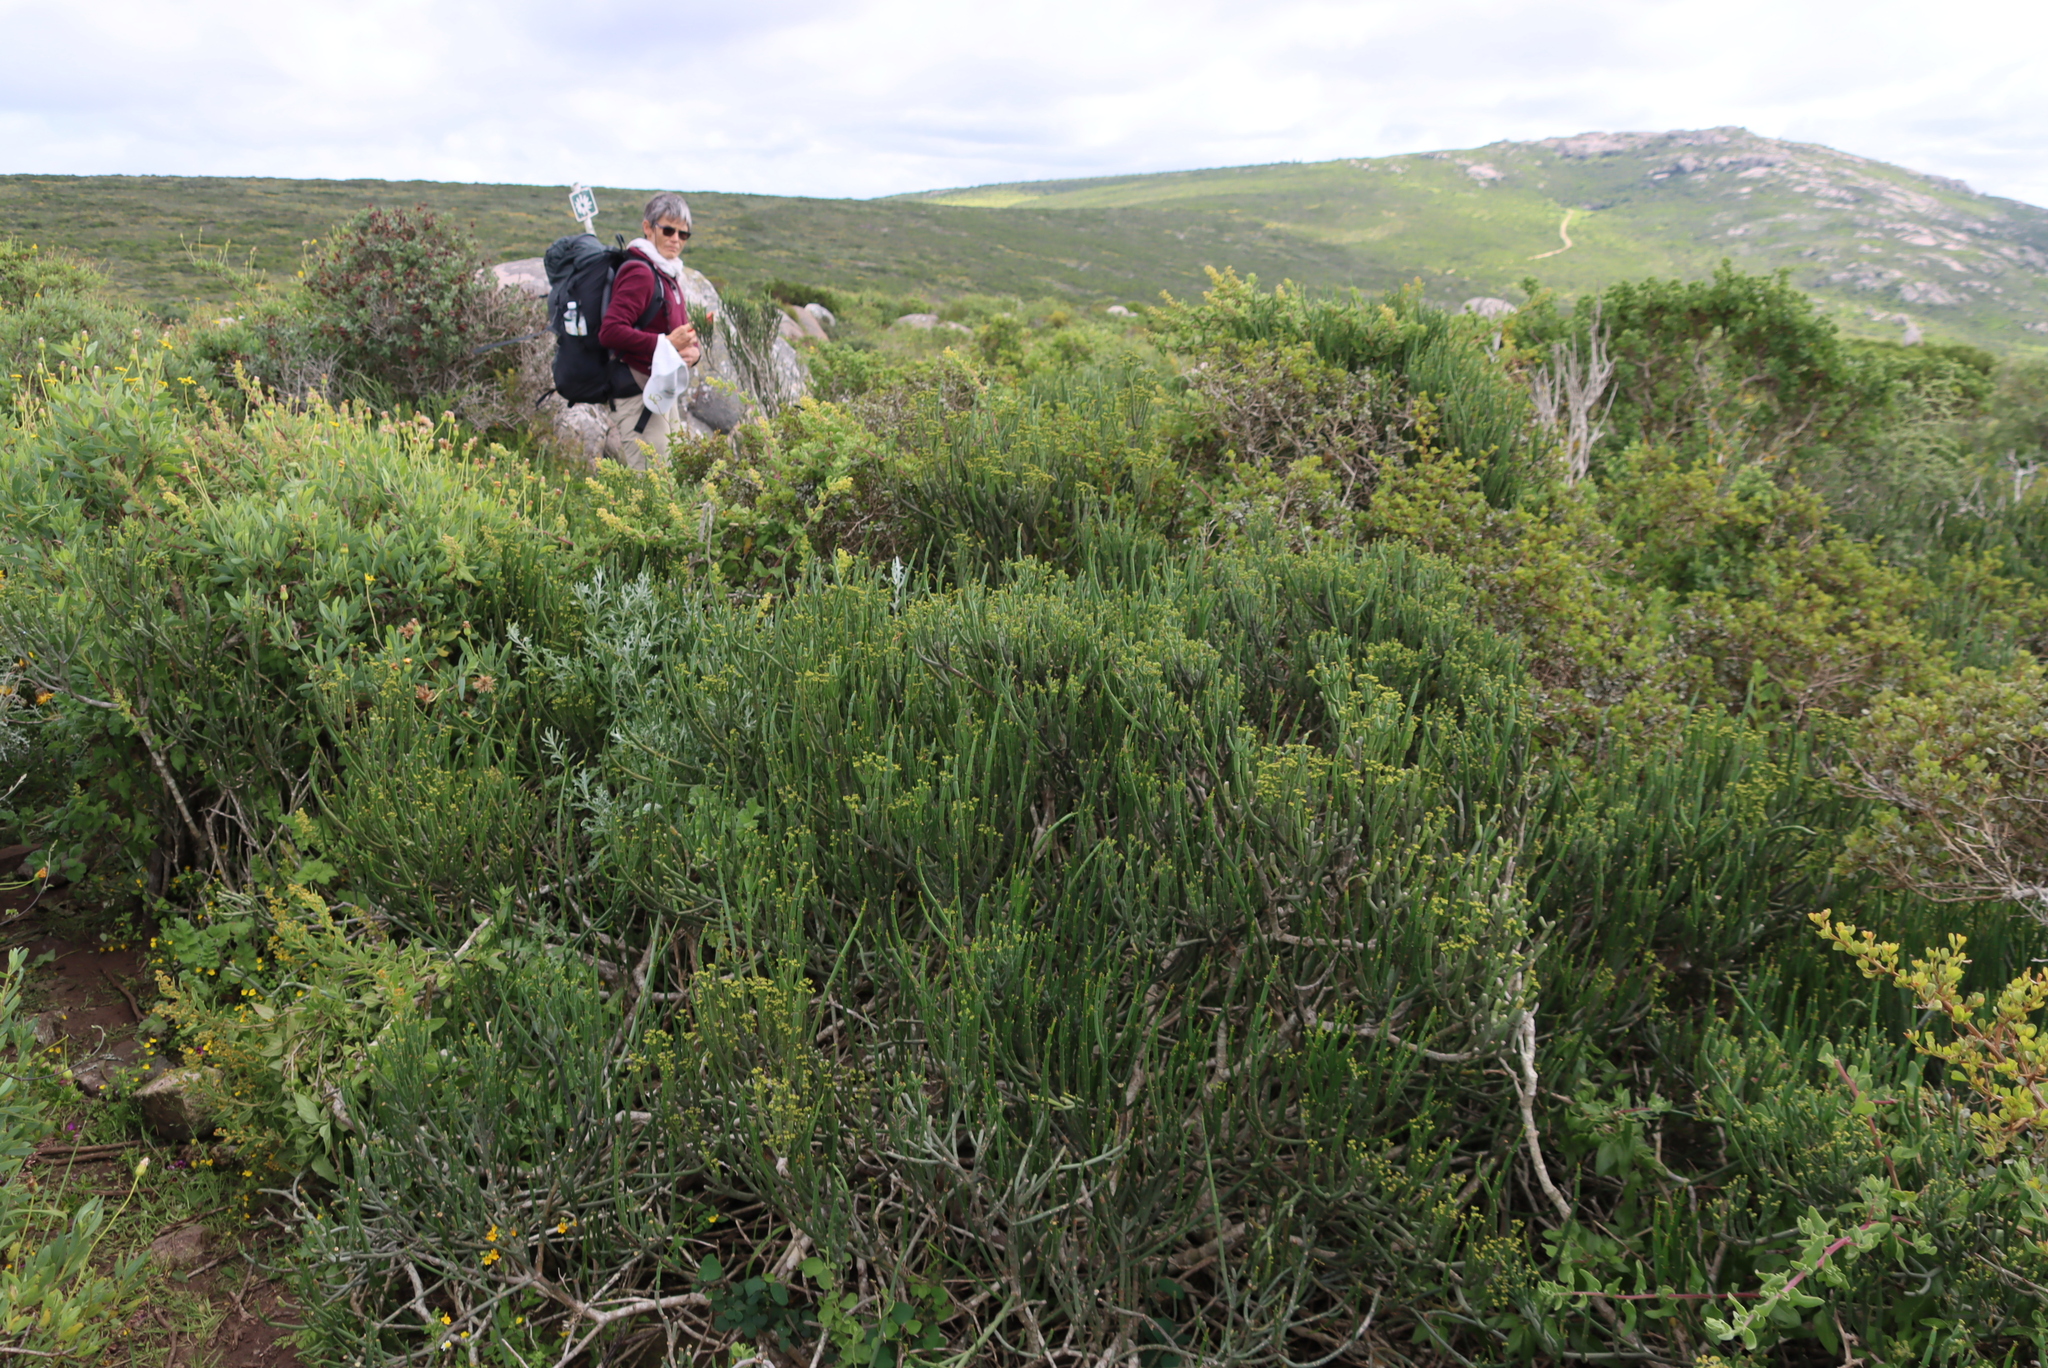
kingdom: Plantae
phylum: Tracheophyta
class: Magnoliopsida
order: Malpighiales
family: Euphorbiaceae
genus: Euphorbia
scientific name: Euphorbia burmanni
